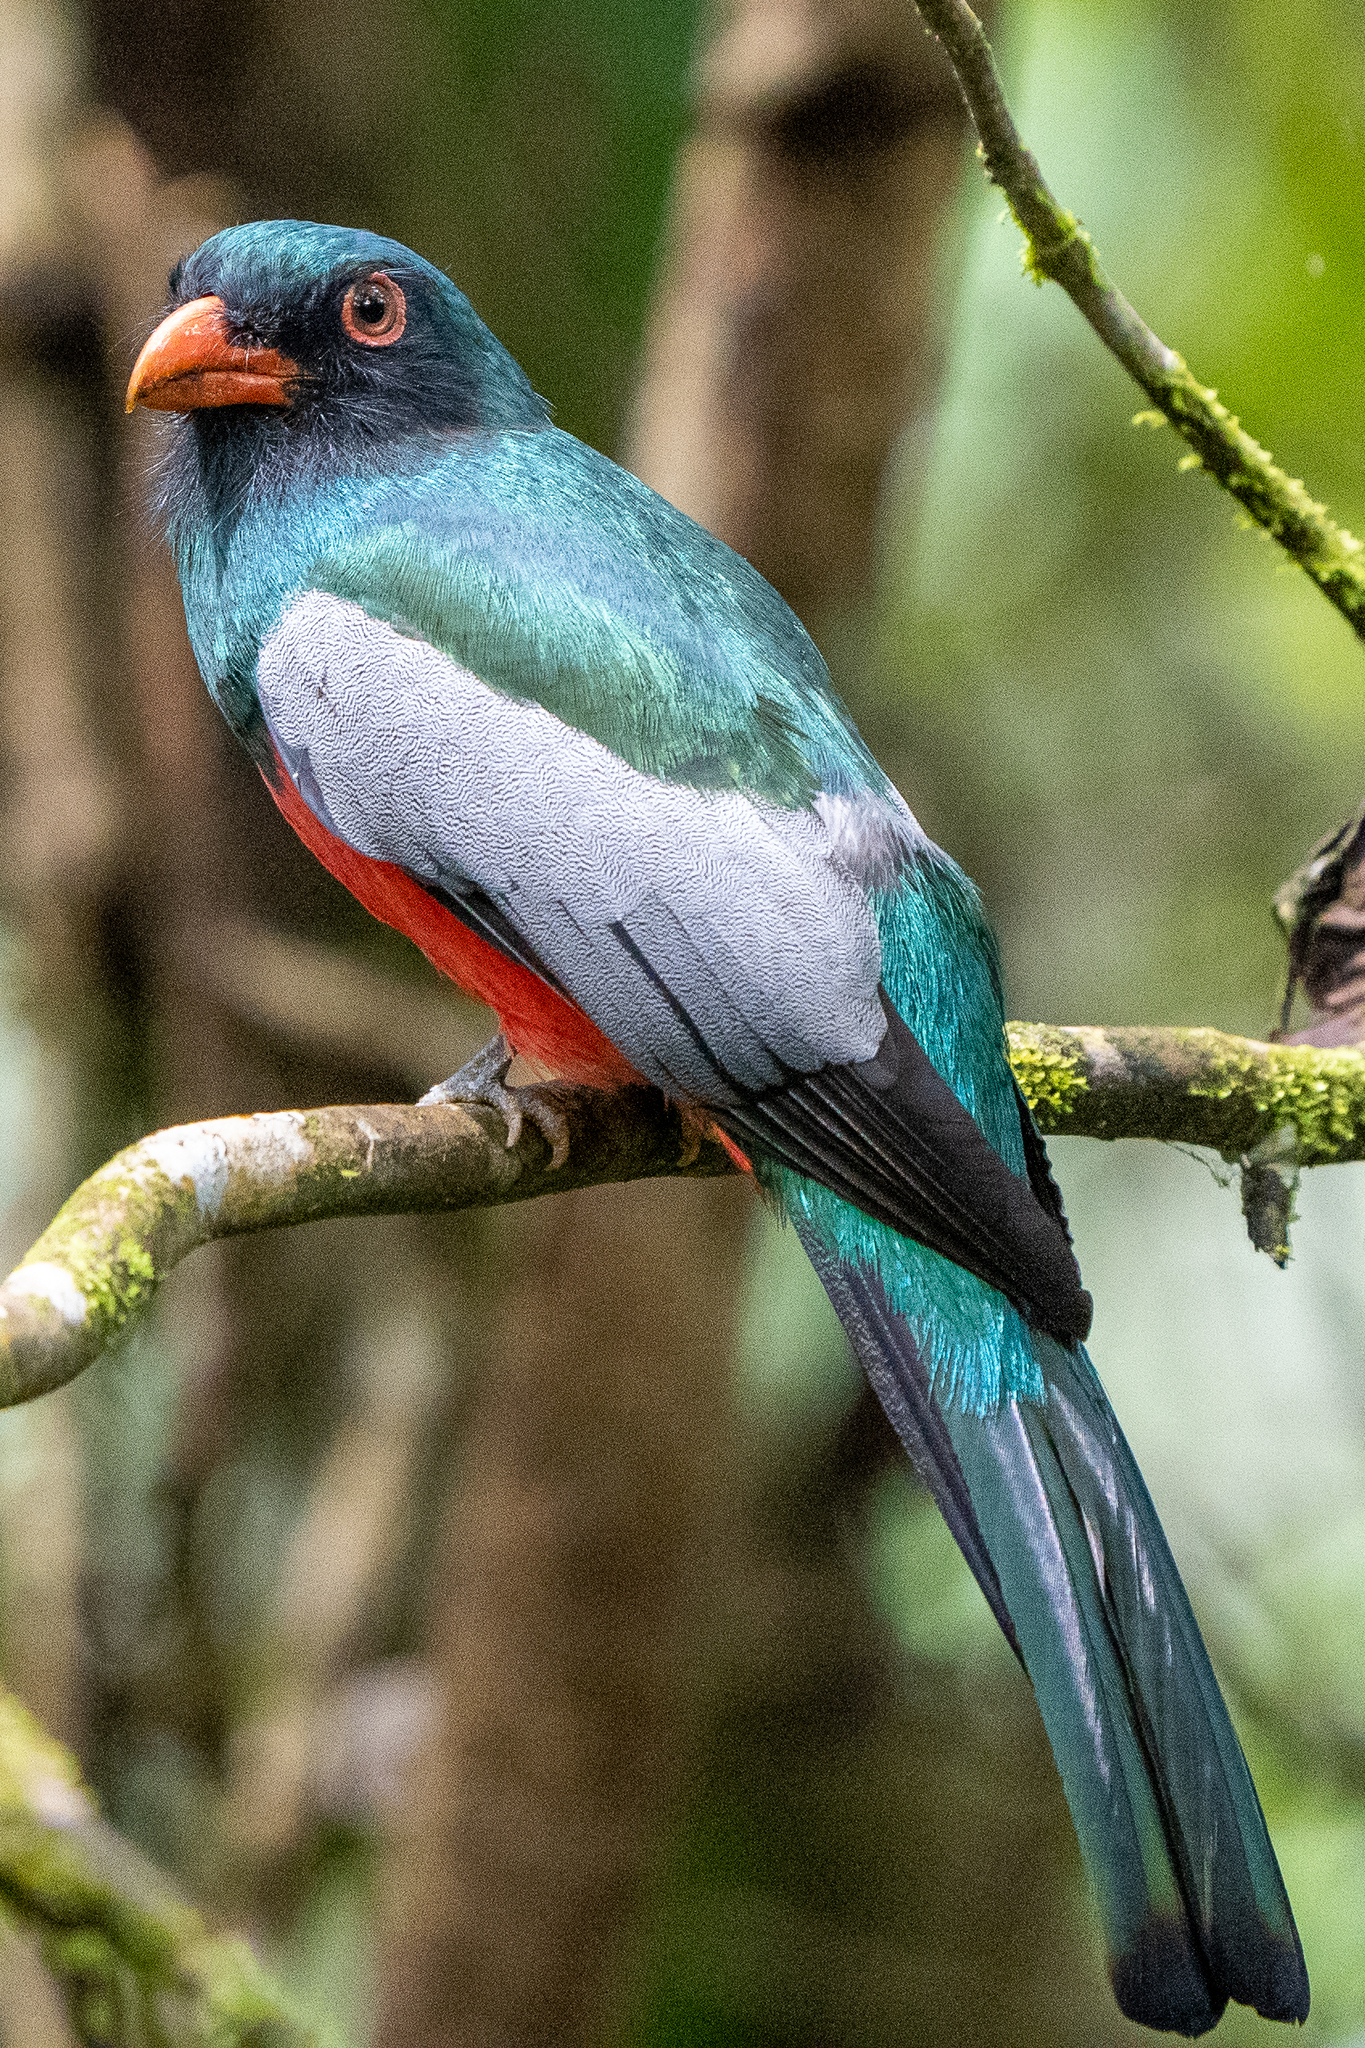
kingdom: Animalia
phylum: Chordata
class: Aves
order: Trogoniformes
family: Trogonidae
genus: Trogon
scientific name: Trogon massena
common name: Slaty-tailed trogon
